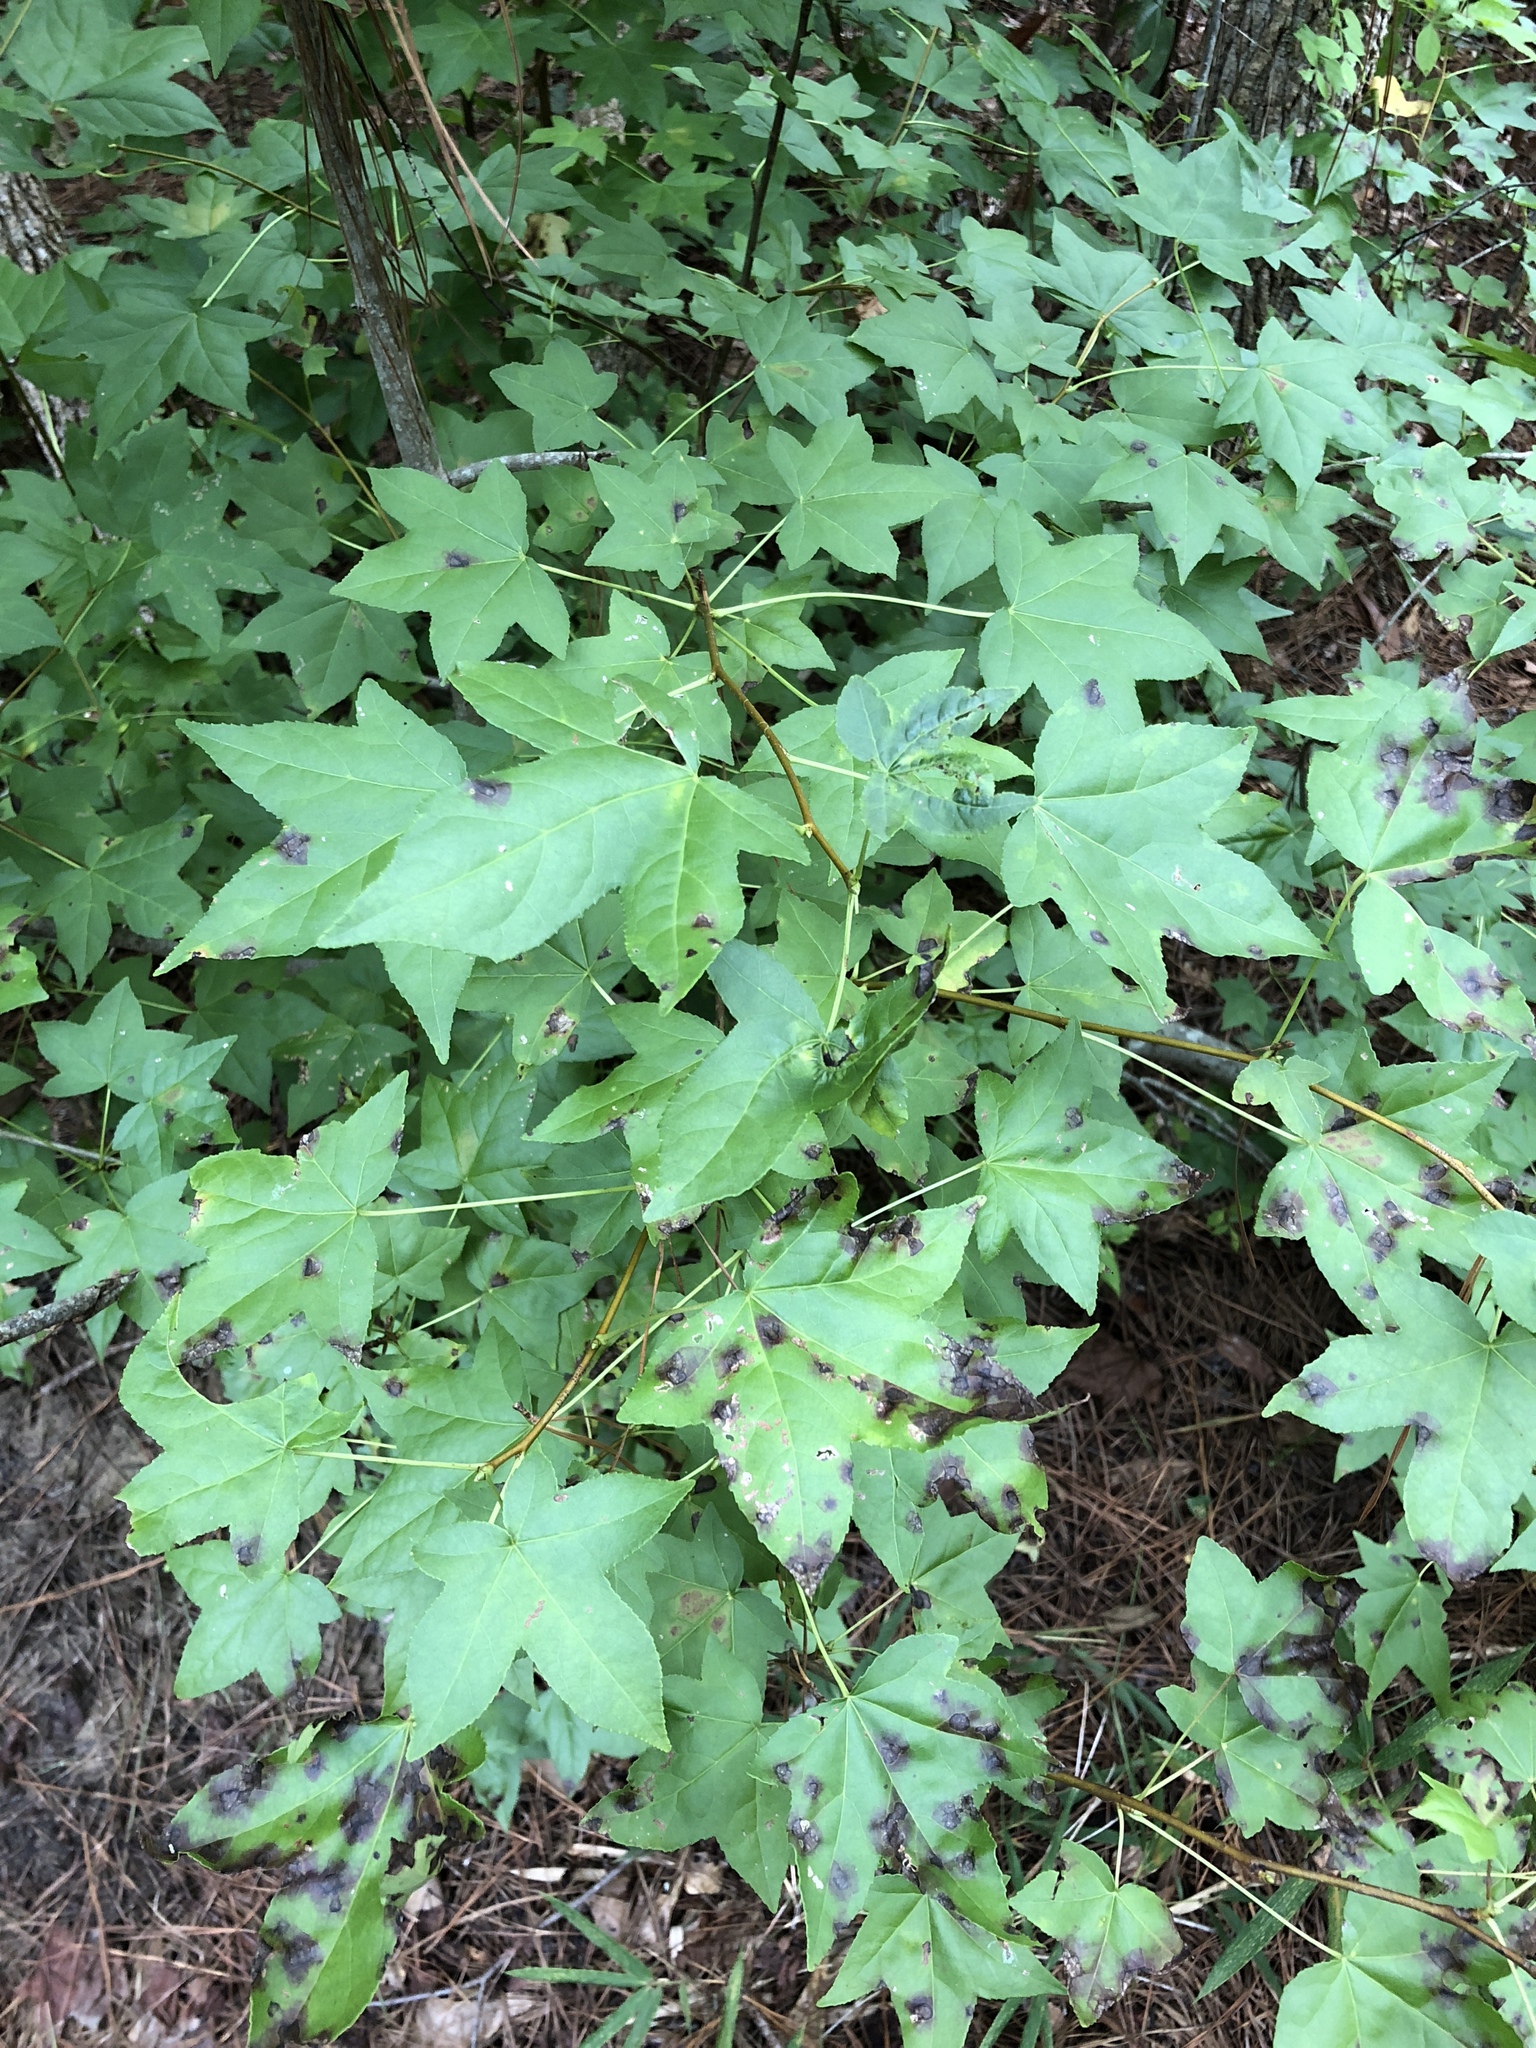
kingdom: Plantae
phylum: Tracheophyta
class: Magnoliopsida
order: Saxifragales
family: Altingiaceae
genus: Liquidambar
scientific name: Liquidambar styraciflua
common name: Sweet gum
